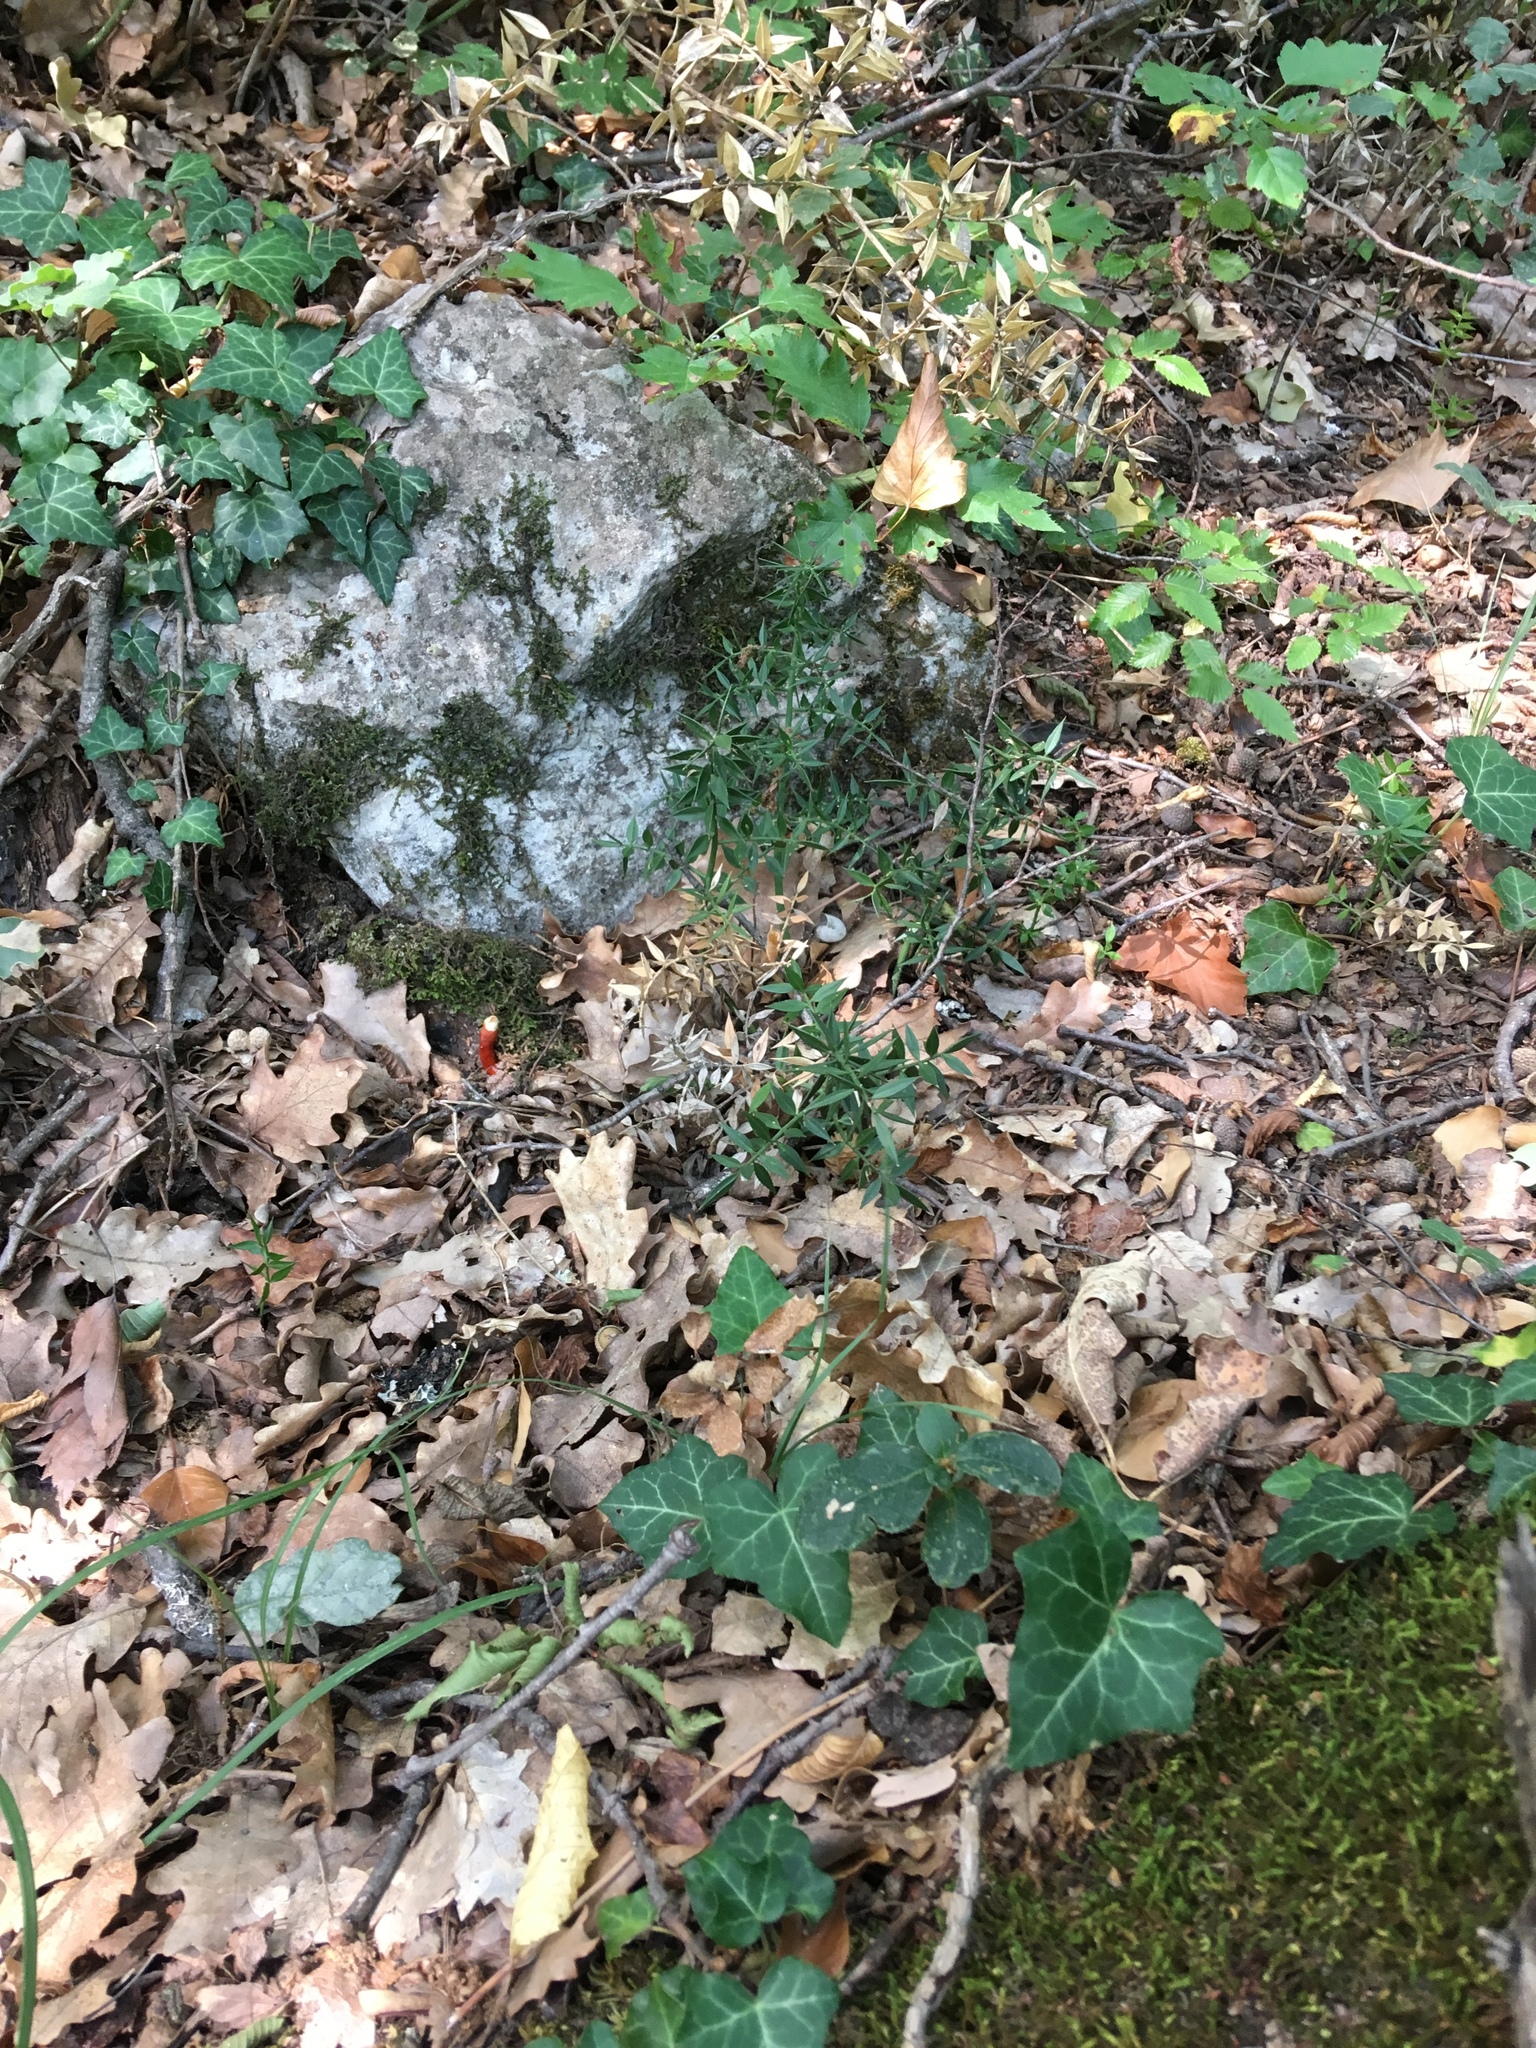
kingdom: Fungi
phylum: Basidiomycota
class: Agaricomycetes
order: Polyporales
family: Polyporaceae
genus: Ganoderma
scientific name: Ganoderma lucidum
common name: Lacquered bracket
